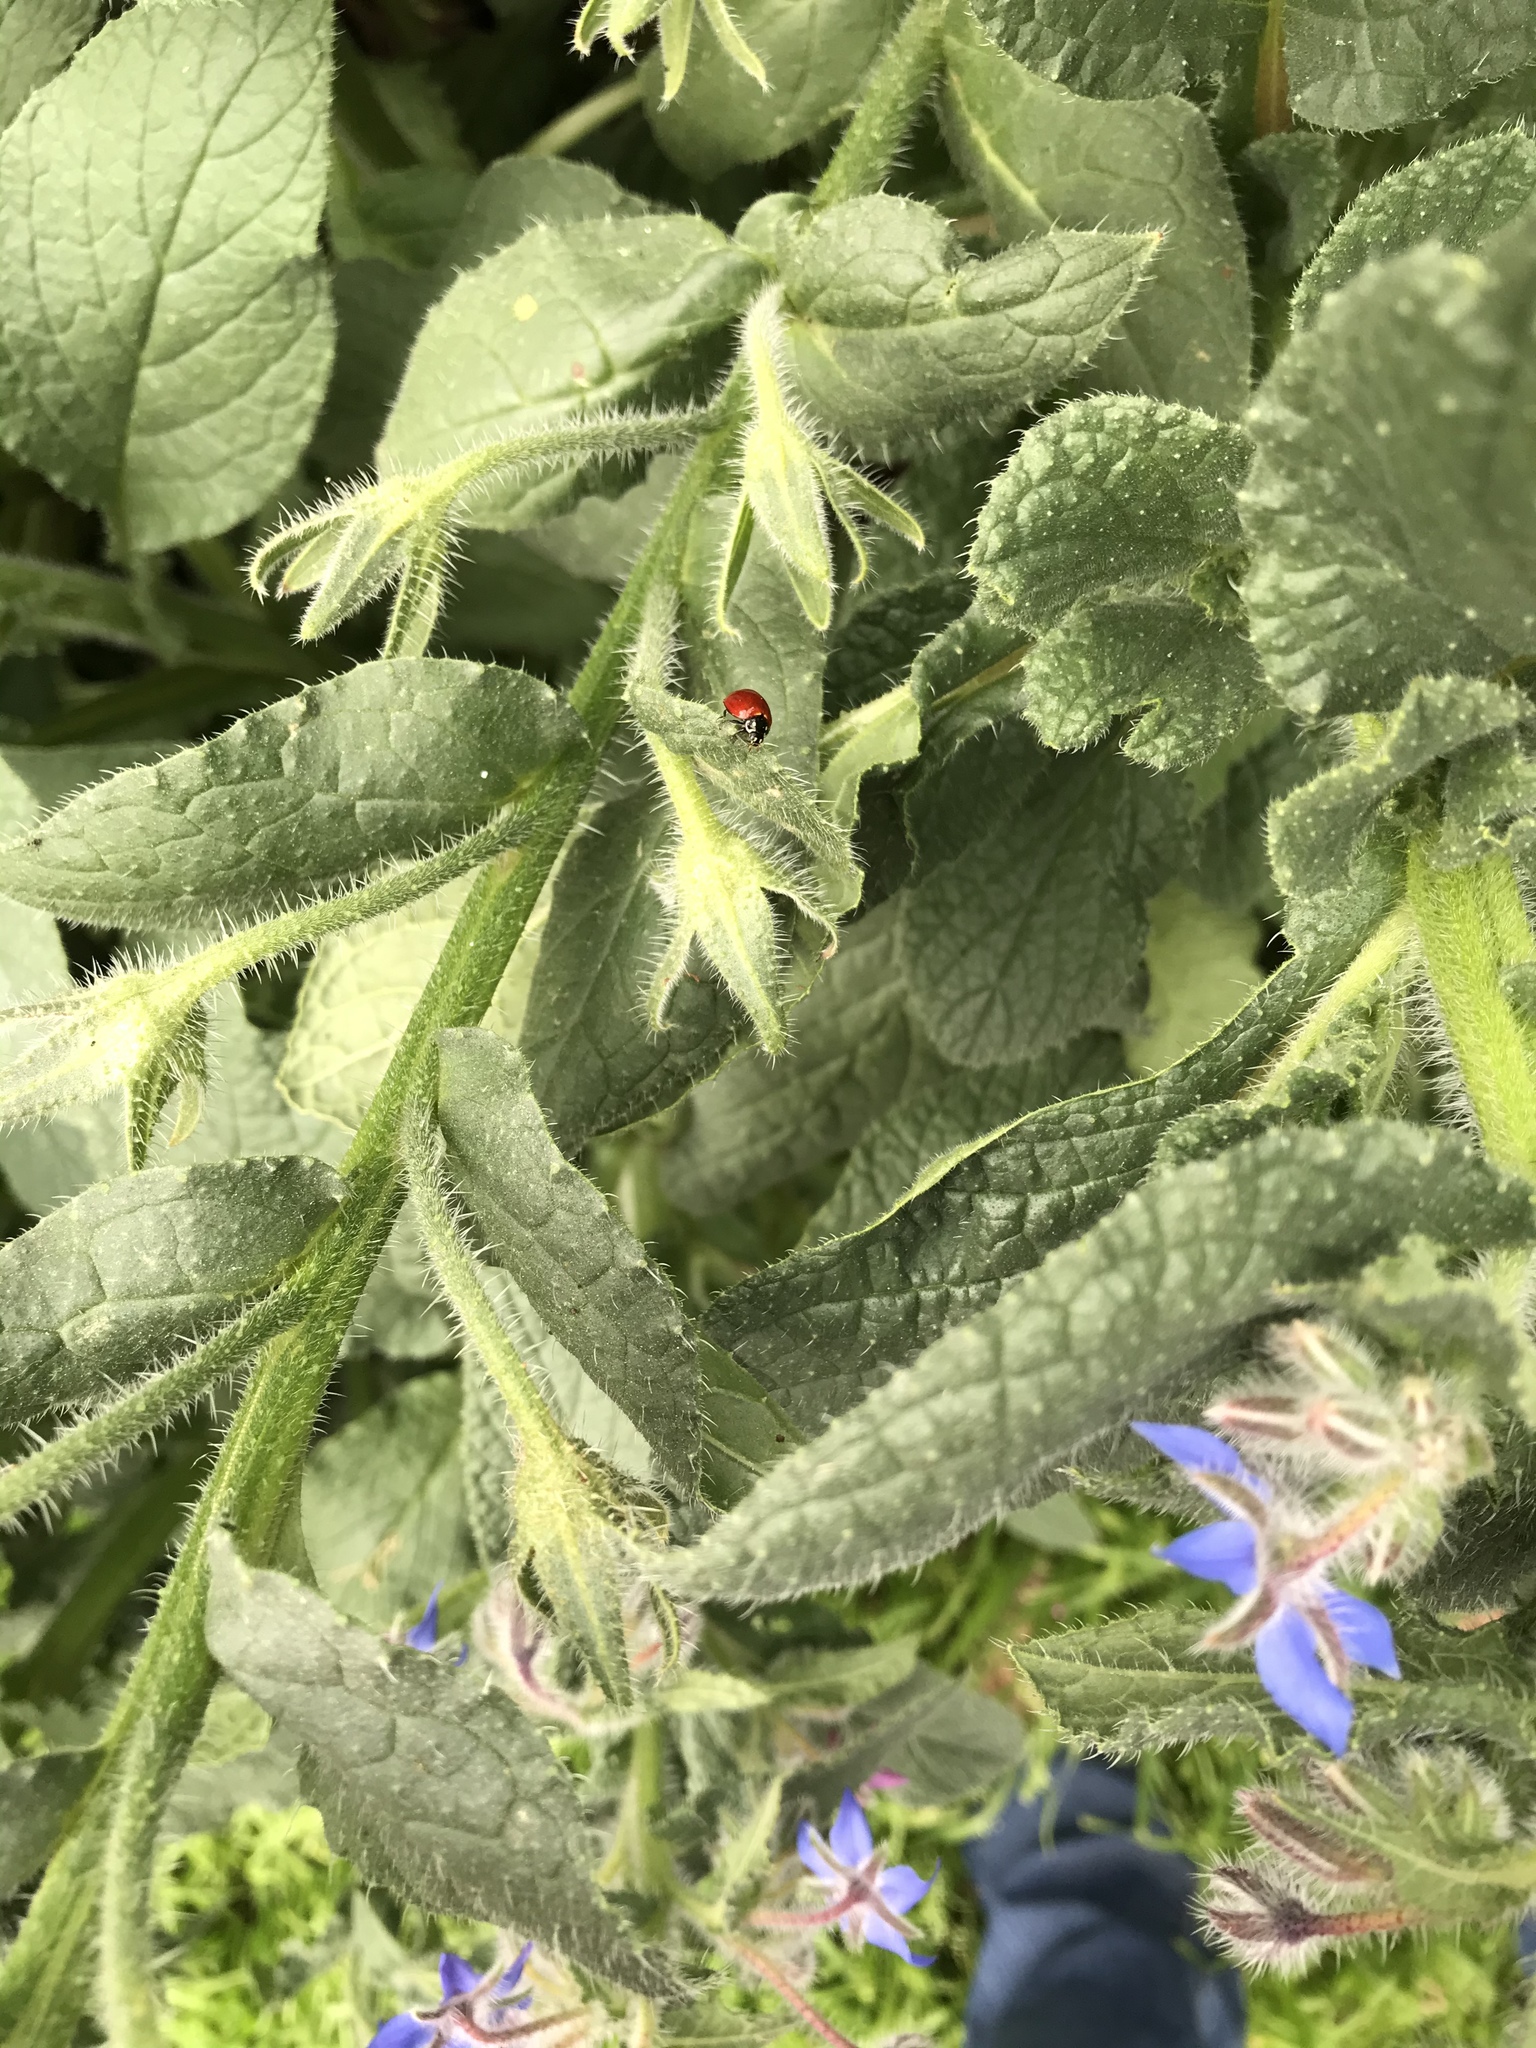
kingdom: Animalia
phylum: Arthropoda
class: Insecta
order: Coleoptera
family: Coccinellidae
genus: Cycloneda
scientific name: Cycloneda sanguinea
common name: Ladybird beetle
